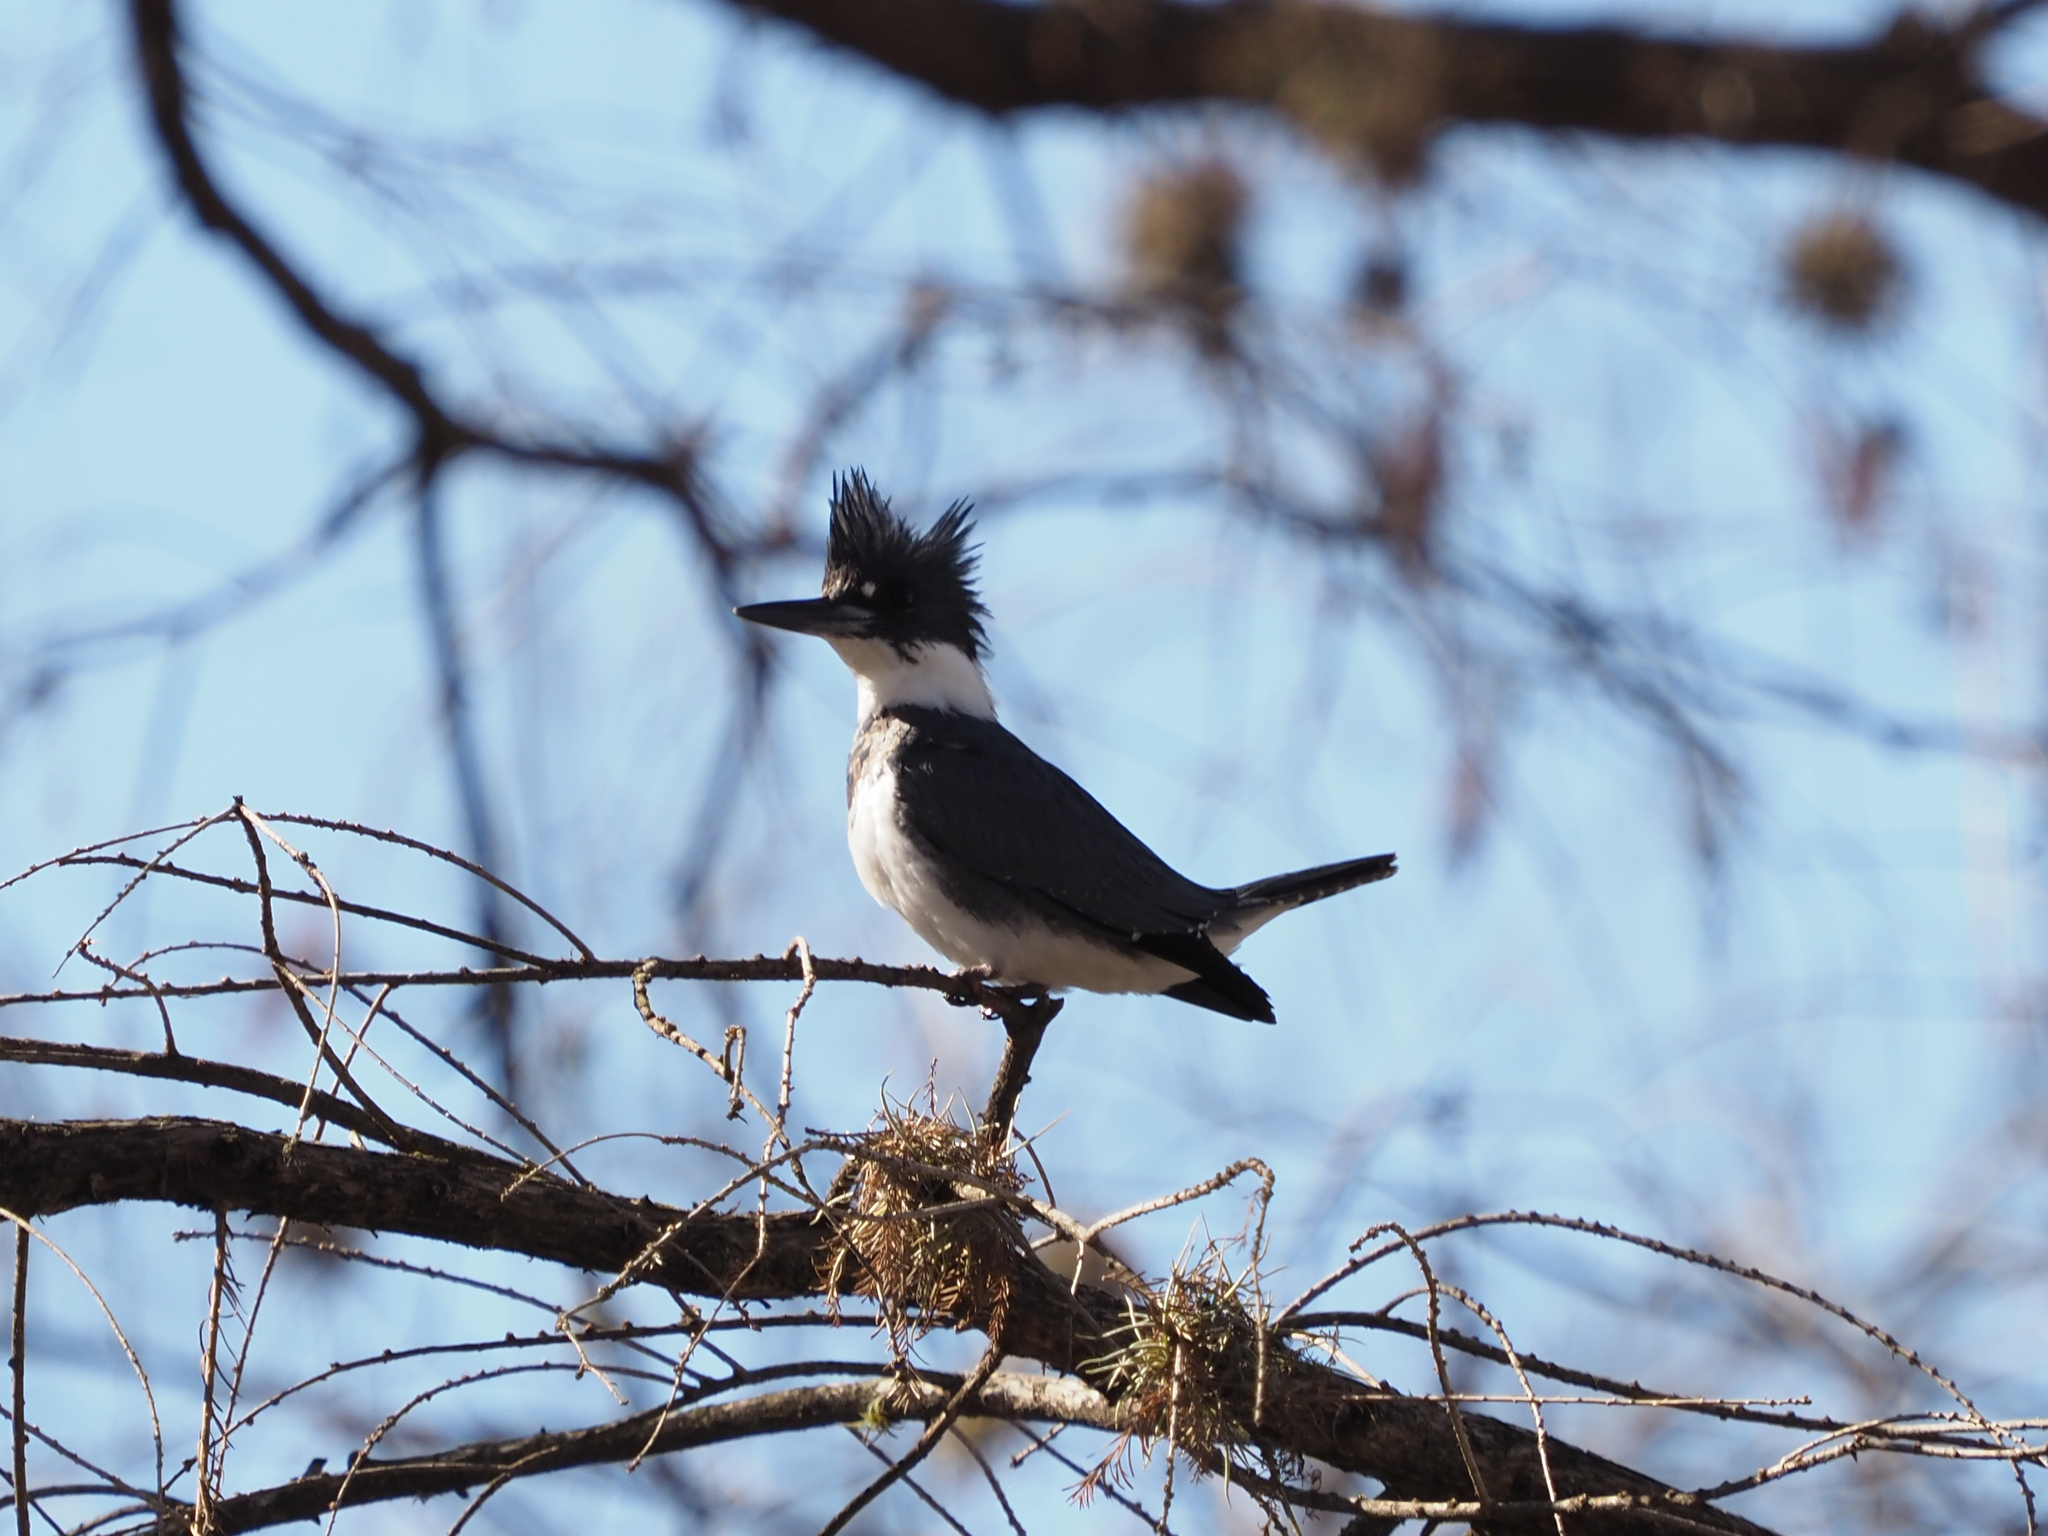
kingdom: Animalia
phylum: Chordata
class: Aves
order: Coraciiformes
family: Alcedinidae
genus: Megaceryle
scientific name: Megaceryle alcyon
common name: Belted kingfisher
